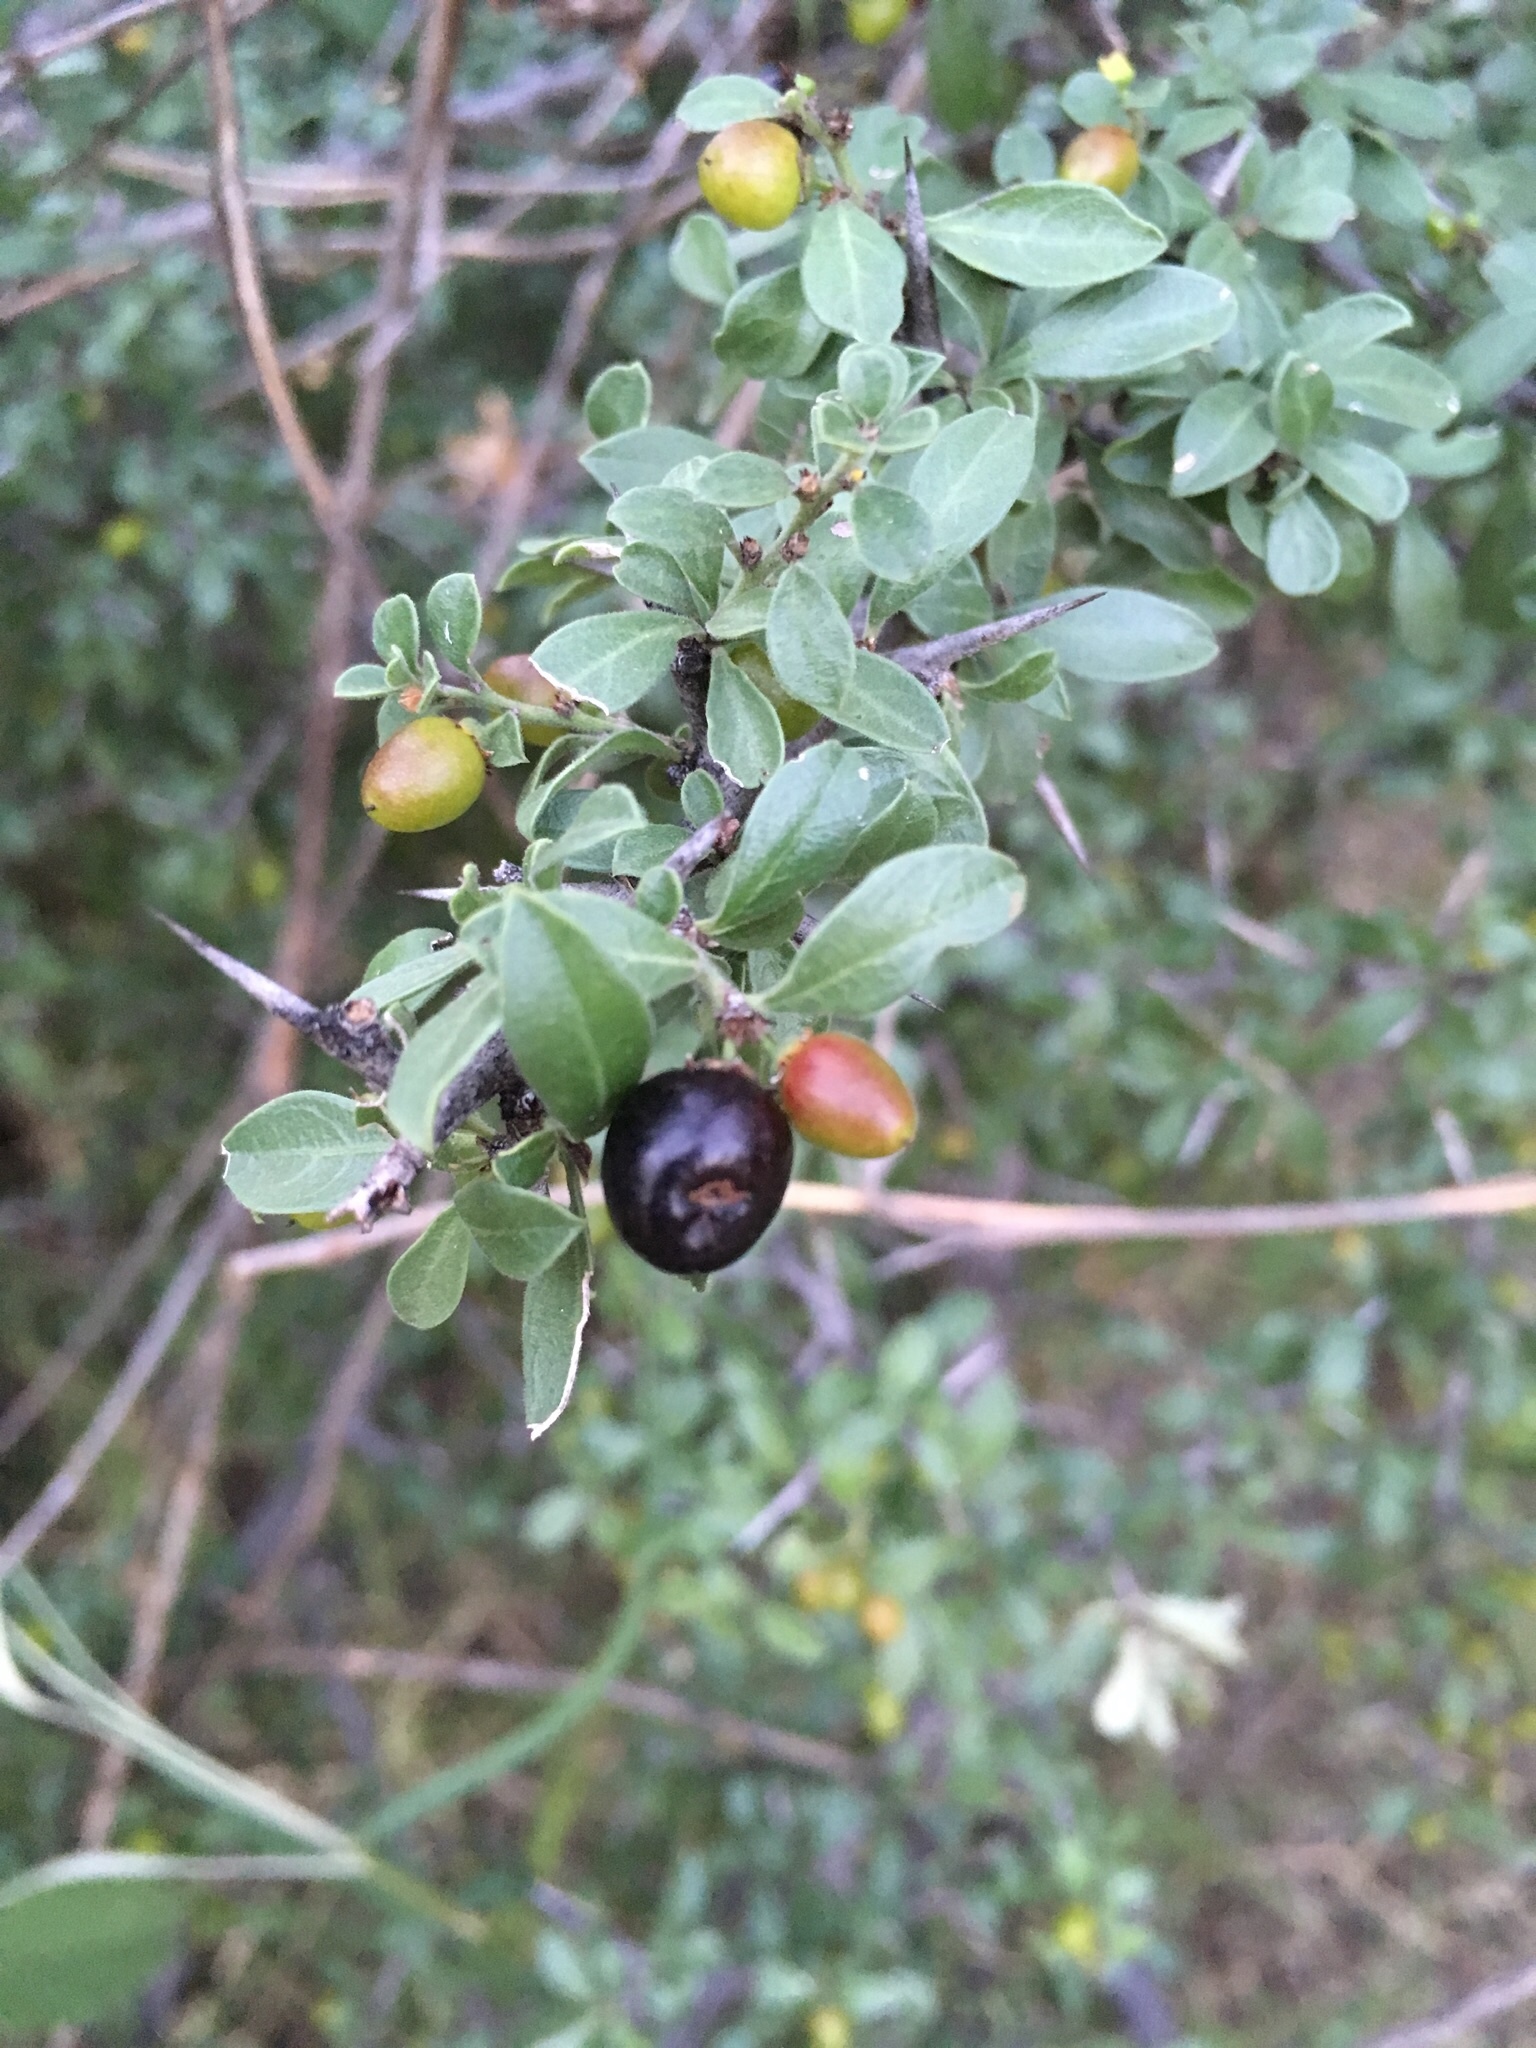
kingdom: Plantae
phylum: Tracheophyta
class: Magnoliopsida
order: Rosales
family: Rhamnaceae
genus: Condalia
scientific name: Condalia correllii
